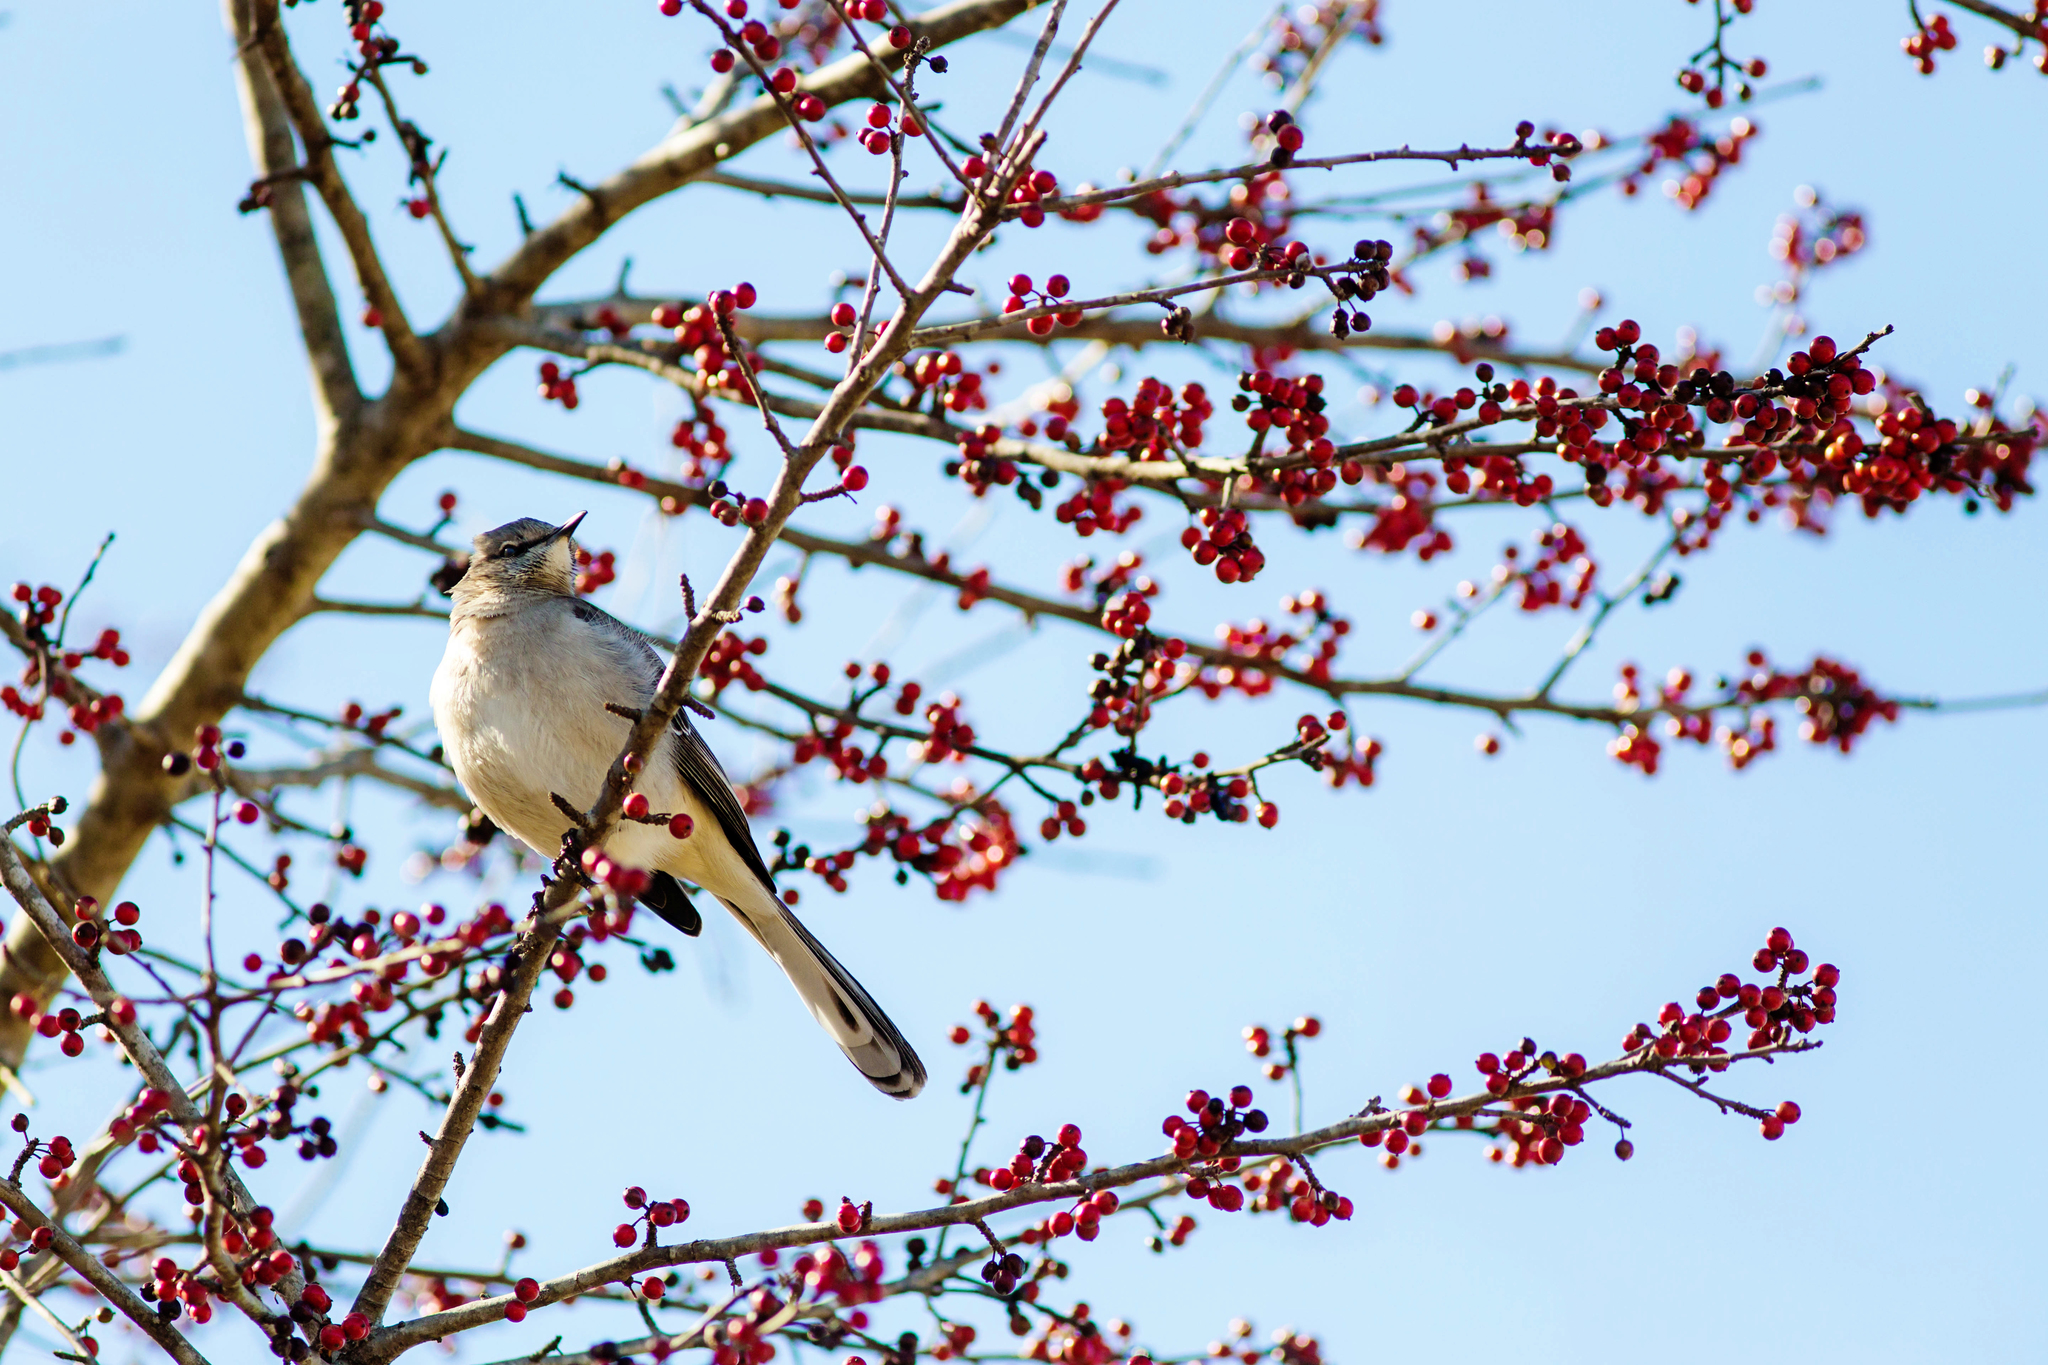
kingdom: Animalia
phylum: Chordata
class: Aves
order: Passeriformes
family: Mimidae
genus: Mimus
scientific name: Mimus polyglottos
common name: Northern mockingbird
